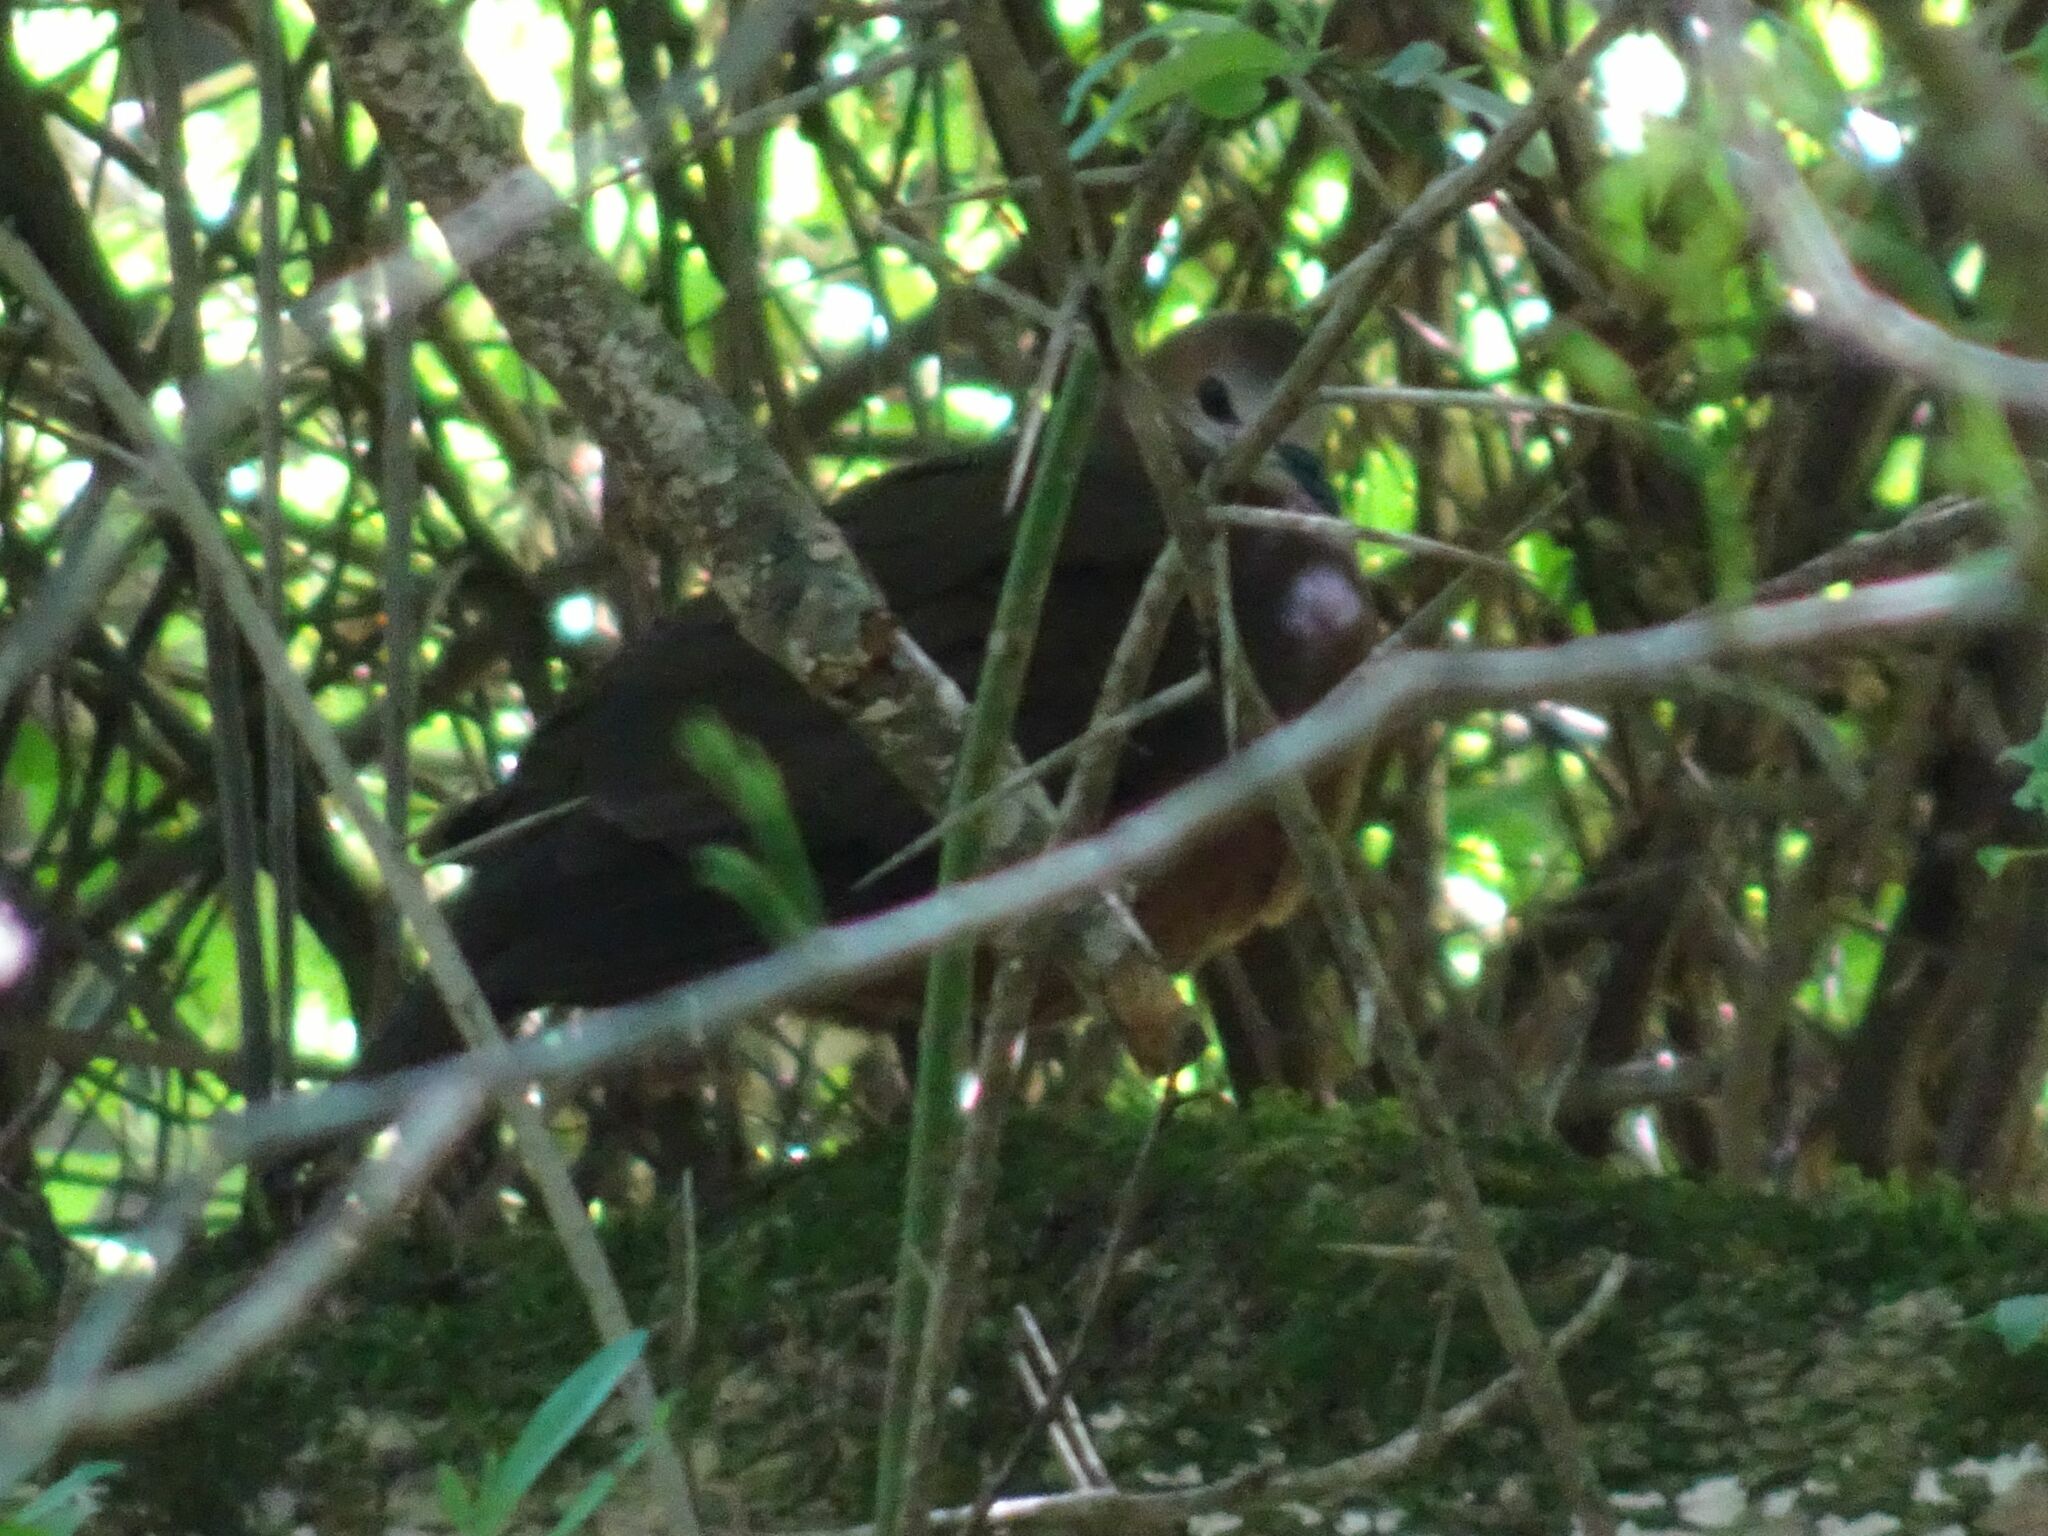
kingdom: Animalia
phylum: Chordata
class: Aves
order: Columbiformes
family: Columbidae
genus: Columba
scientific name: Columba larvata
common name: Lemon dove
